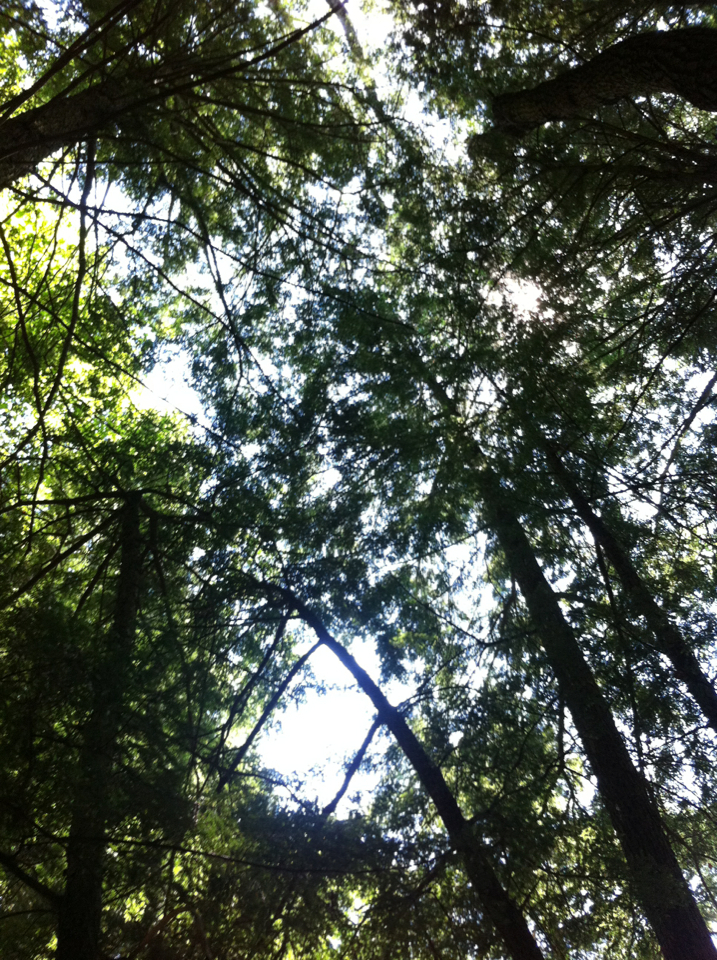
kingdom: Plantae
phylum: Tracheophyta
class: Pinopsida
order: Pinales
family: Pinaceae
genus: Tsuga
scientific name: Tsuga canadensis
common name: Eastern hemlock
